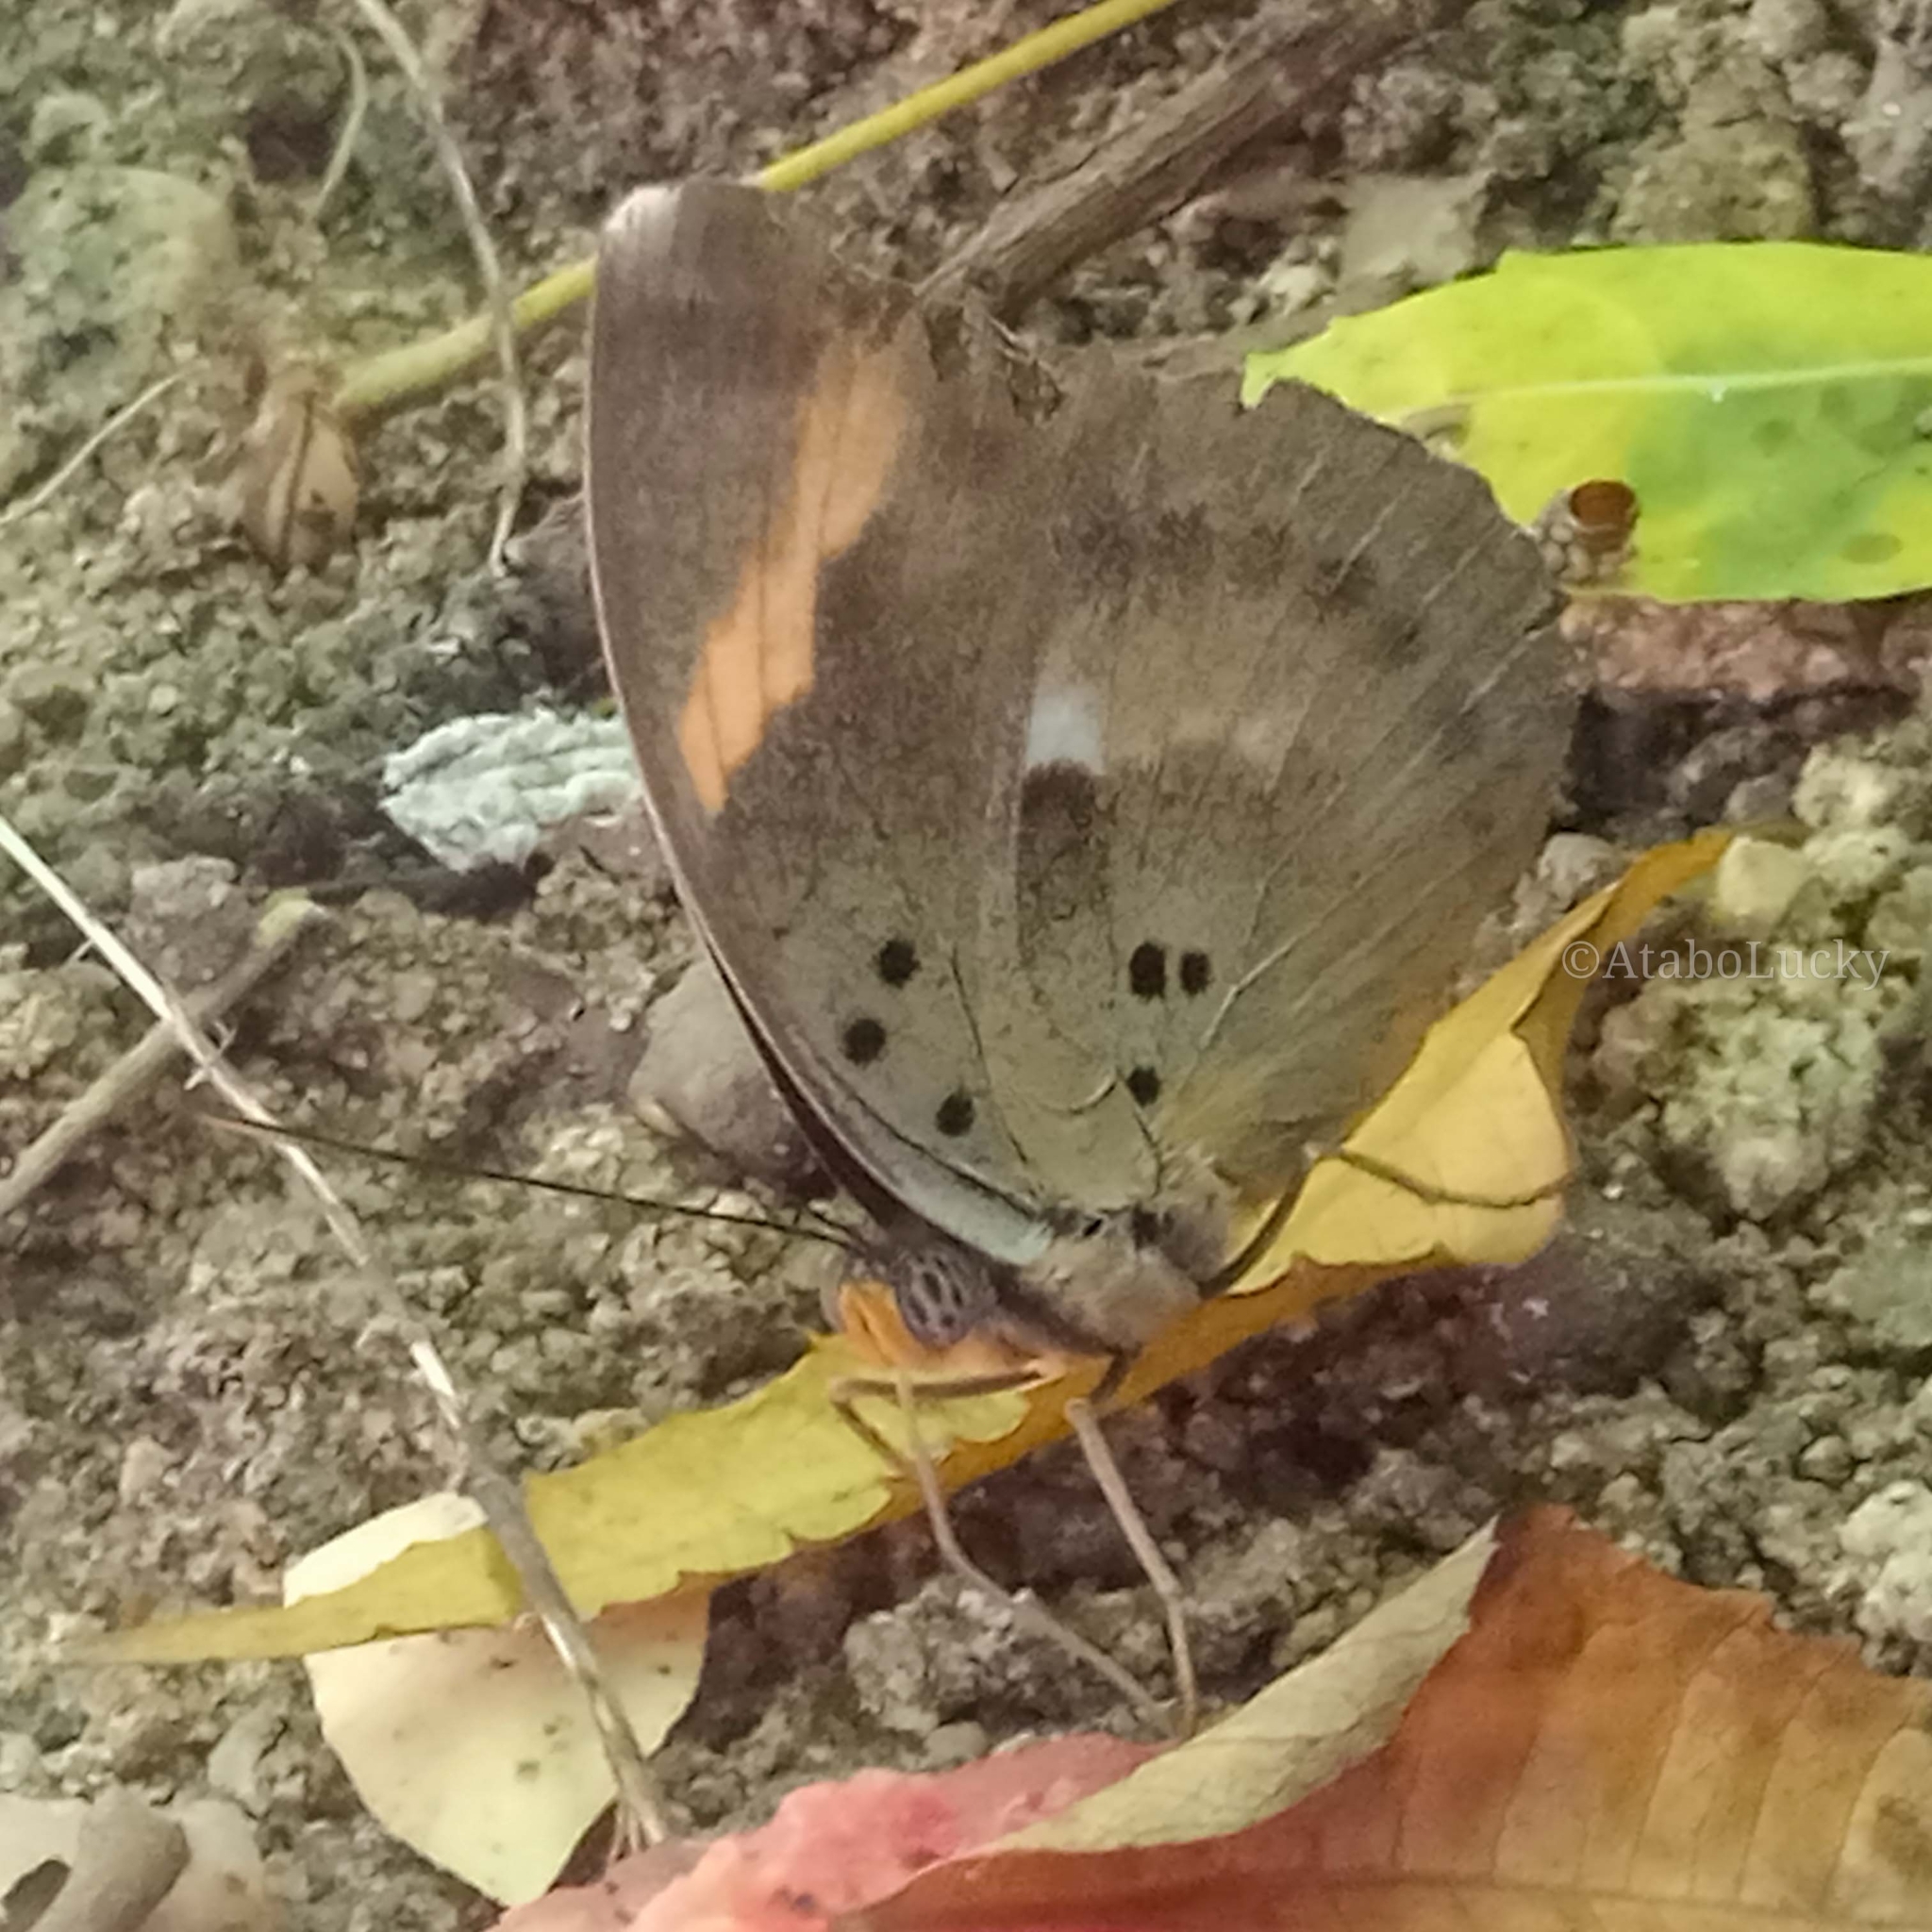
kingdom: Animalia
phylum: Arthropoda
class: Insecta
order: Lepidoptera
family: Nymphalidae
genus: Euphaedra
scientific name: Euphaedra medon
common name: Widespread forester
